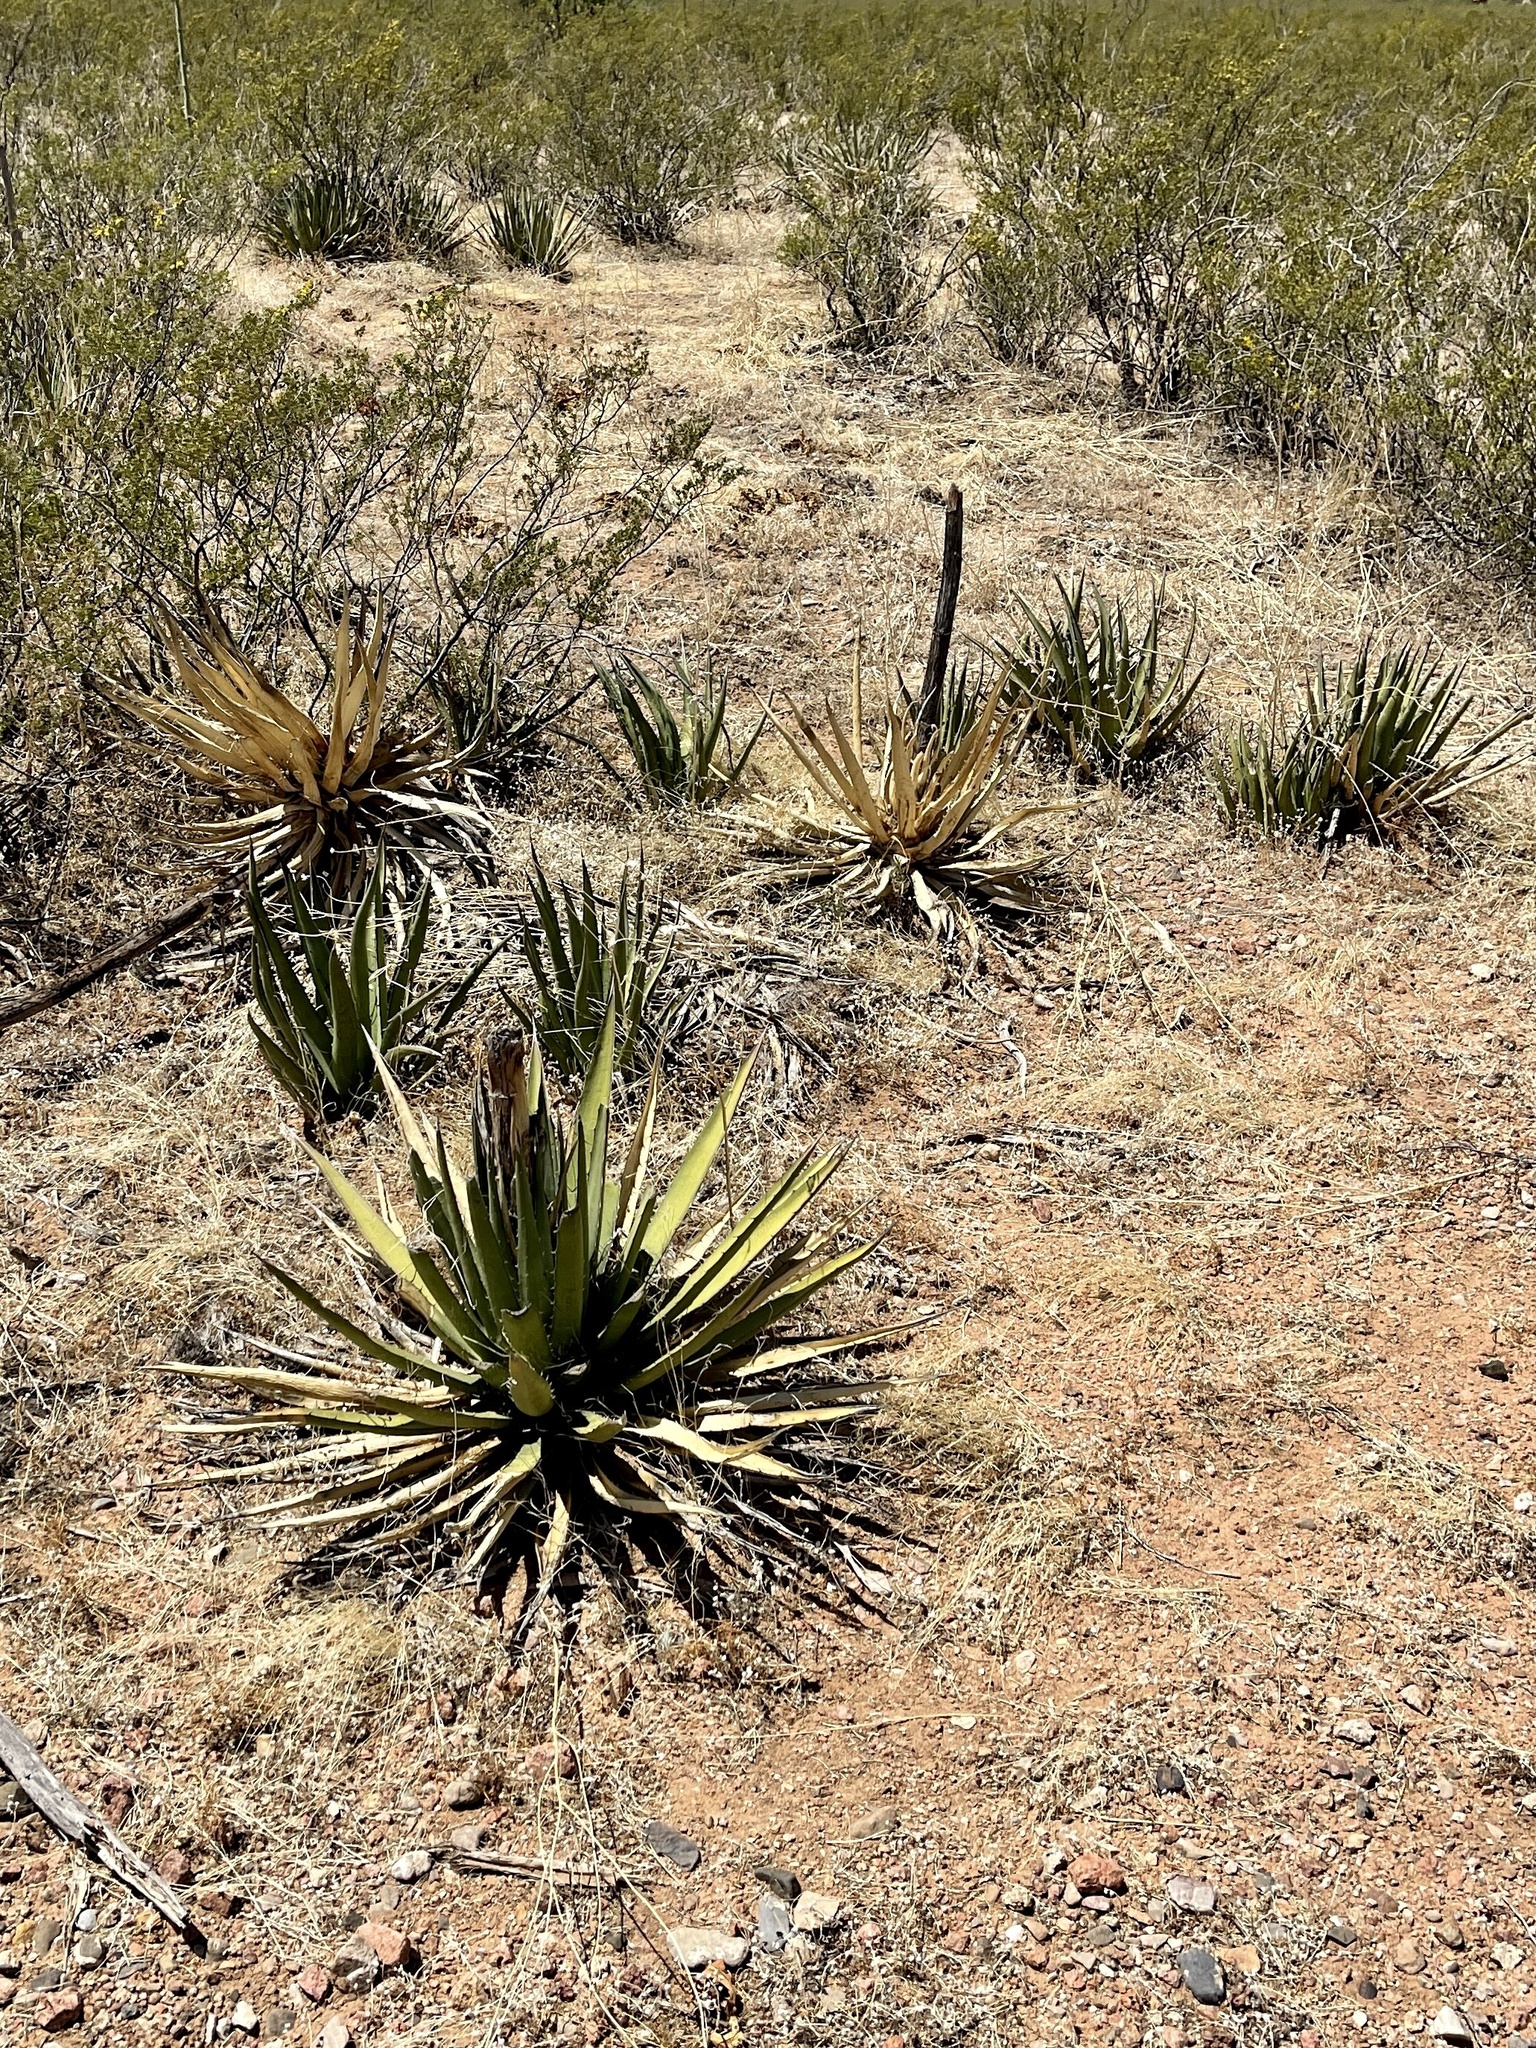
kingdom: Plantae
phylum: Tracheophyta
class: Liliopsida
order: Asparagales
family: Asparagaceae
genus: Agave
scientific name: Agave lechuguilla
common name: Lecheguilla agave
